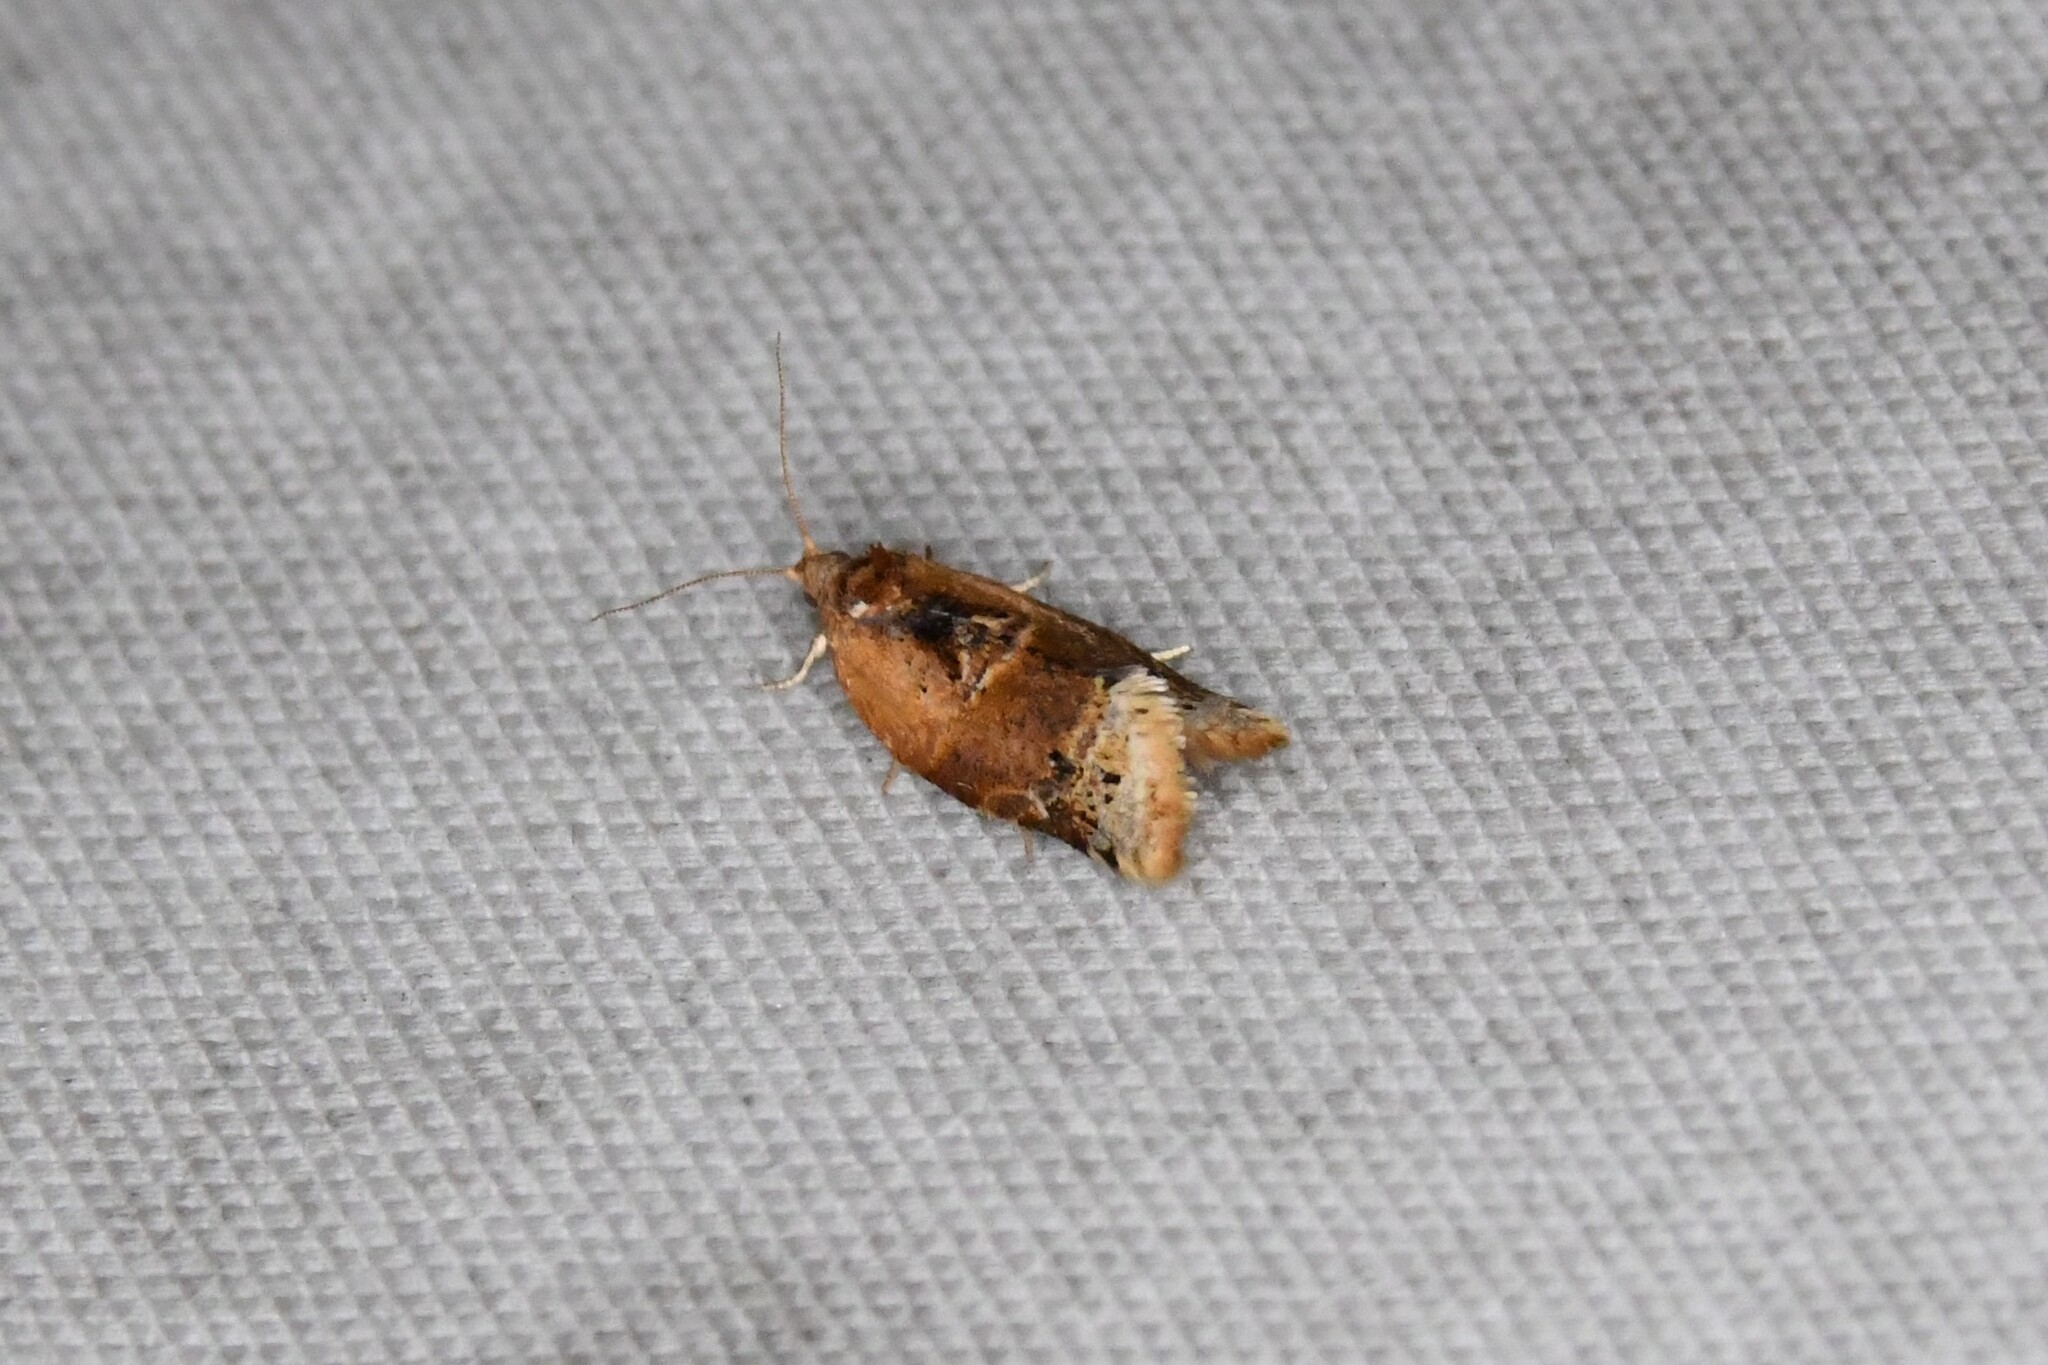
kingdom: Animalia
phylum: Arthropoda
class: Insecta
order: Lepidoptera
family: Tortricidae
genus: Argyrotaenia
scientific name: Argyrotaenia velutinana
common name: Red-banded leafroller moth
